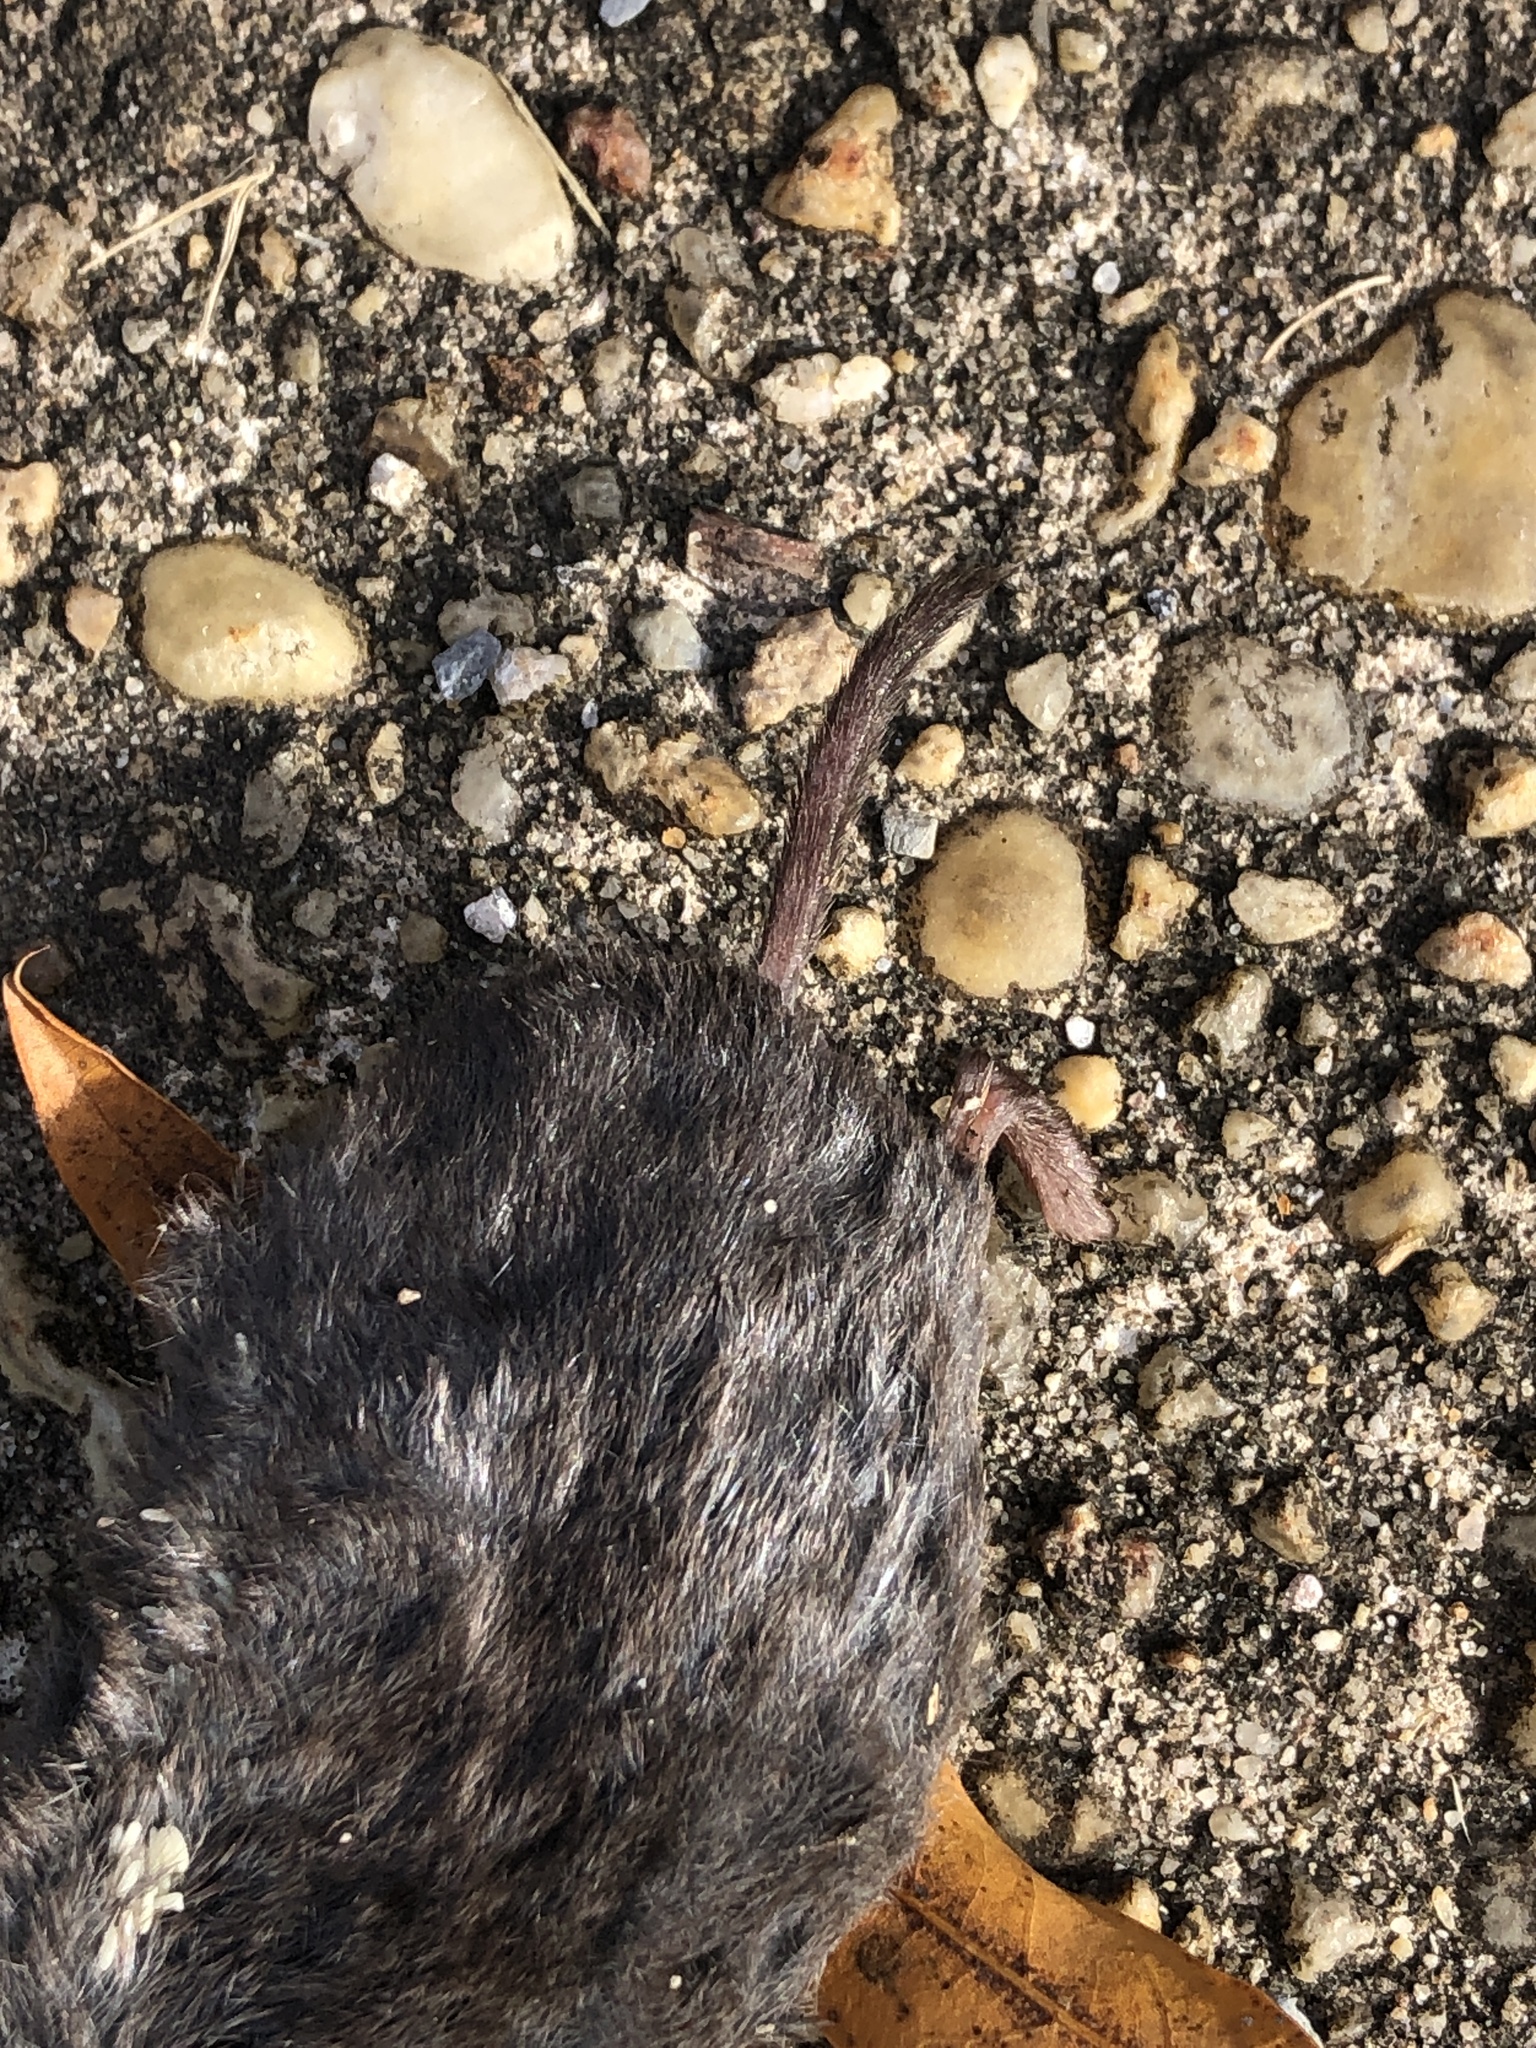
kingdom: Animalia
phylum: Chordata
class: Mammalia
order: Soricomorpha
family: Soricidae
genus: Blarina
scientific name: Blarina brevicauda
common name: Northern short-tailed shrew
